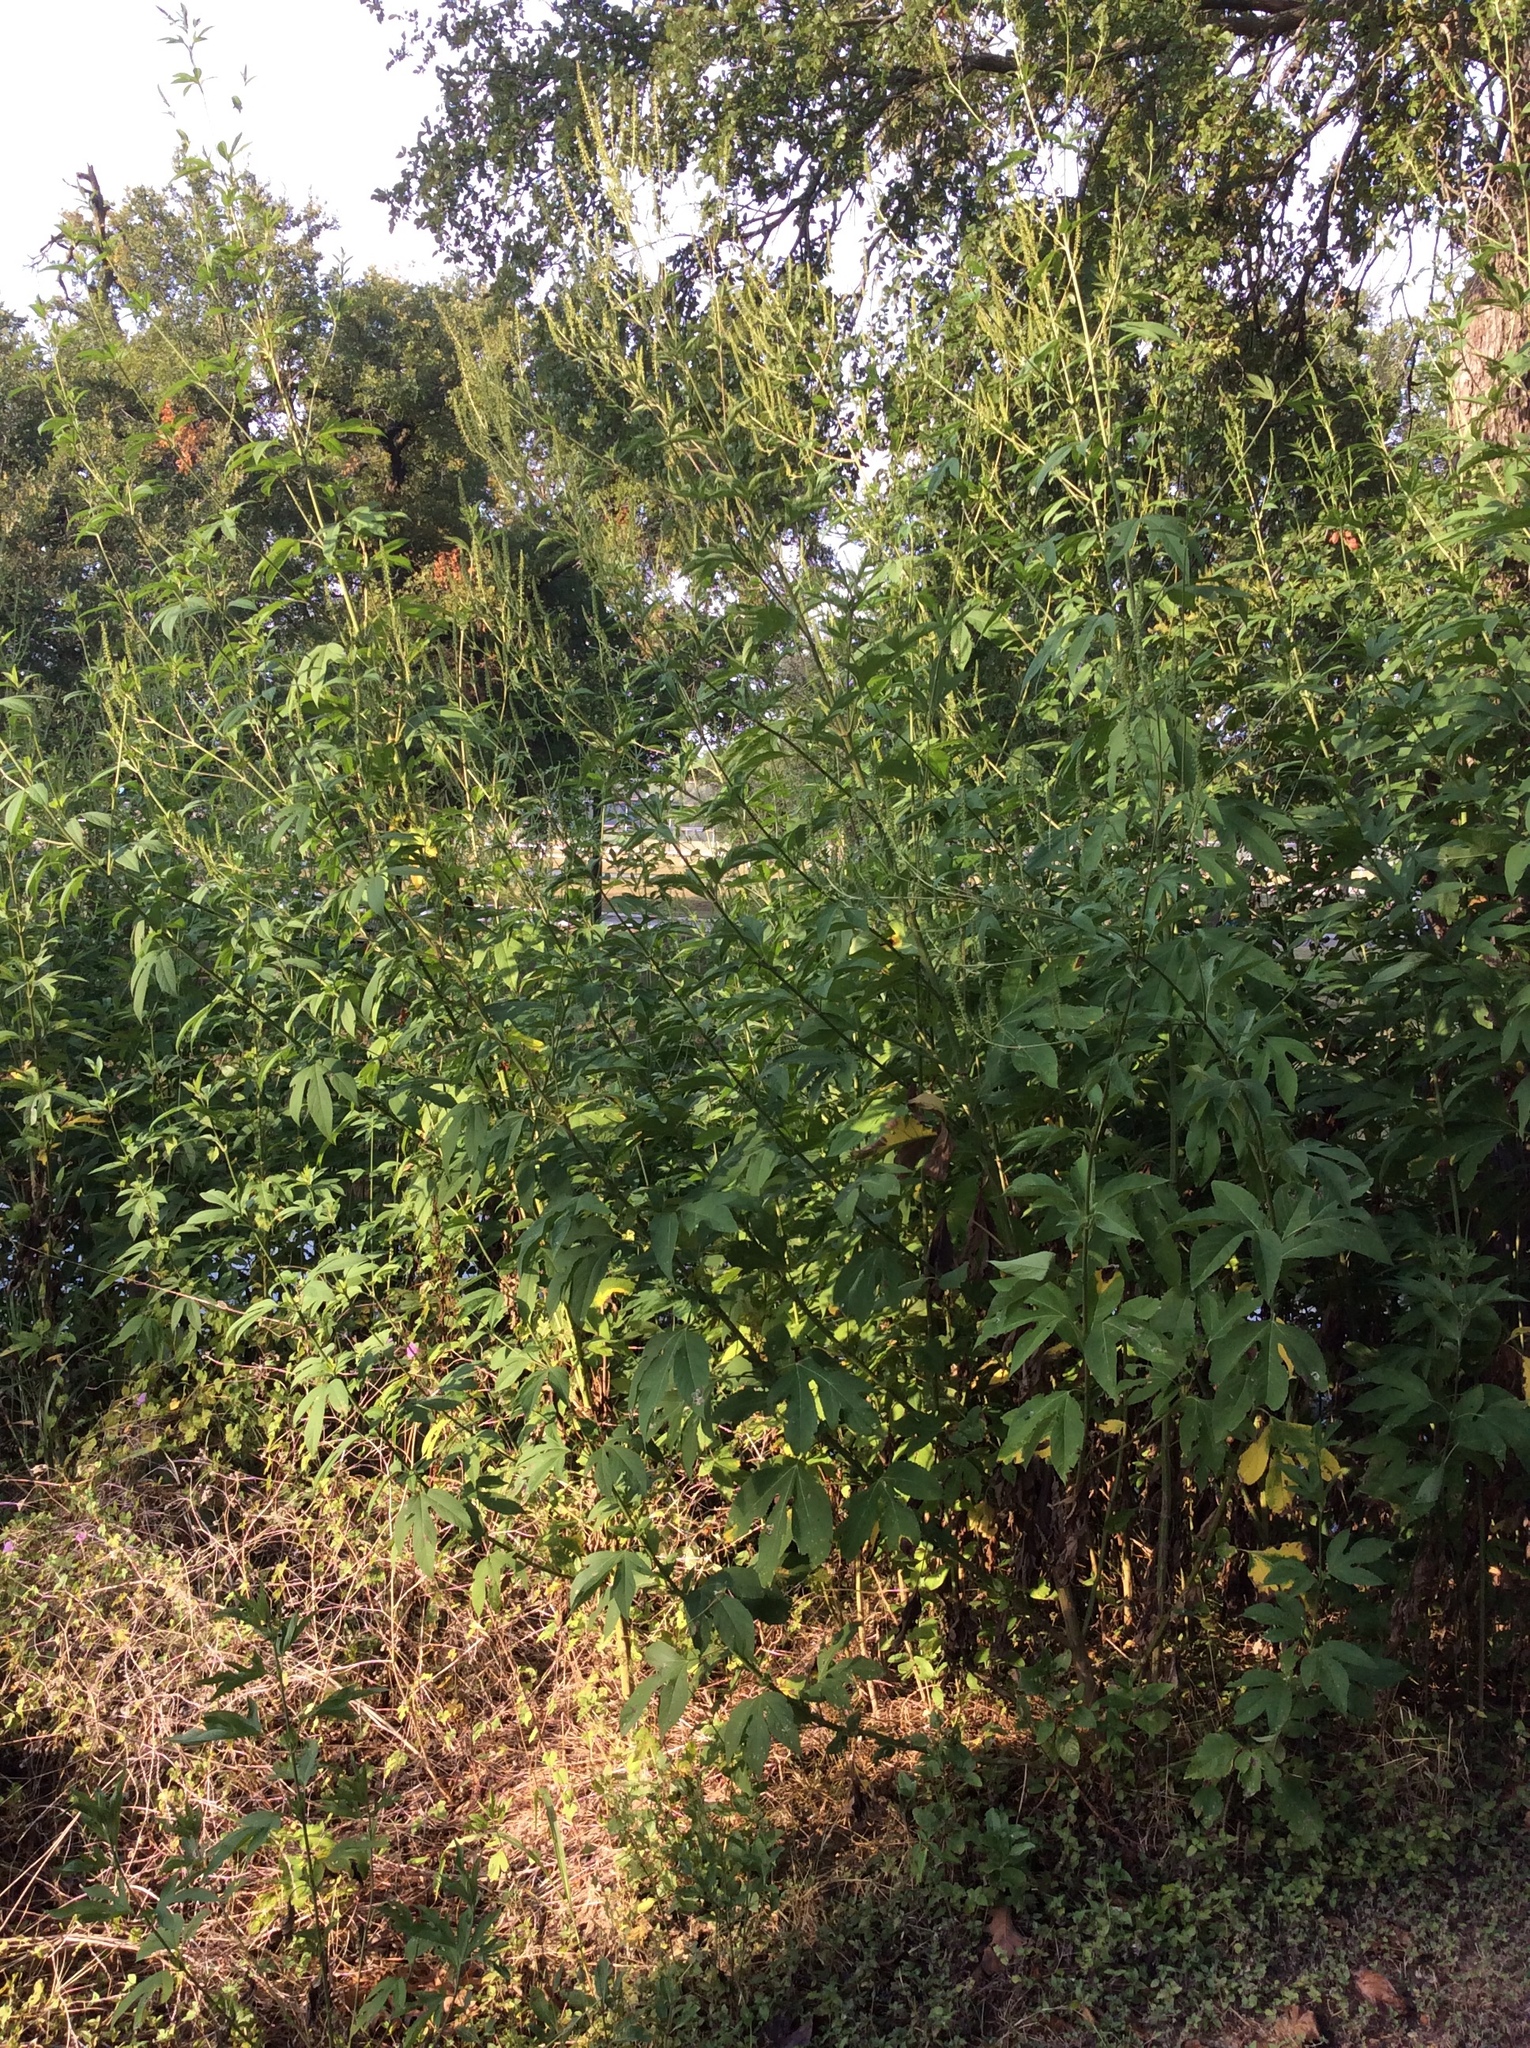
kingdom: Plantae
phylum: Tracheophyta
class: Magnoliopsida
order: Asterales
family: Asteraceae
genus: Ambrosia
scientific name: Ambrosia trifida
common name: Giant ragweed
